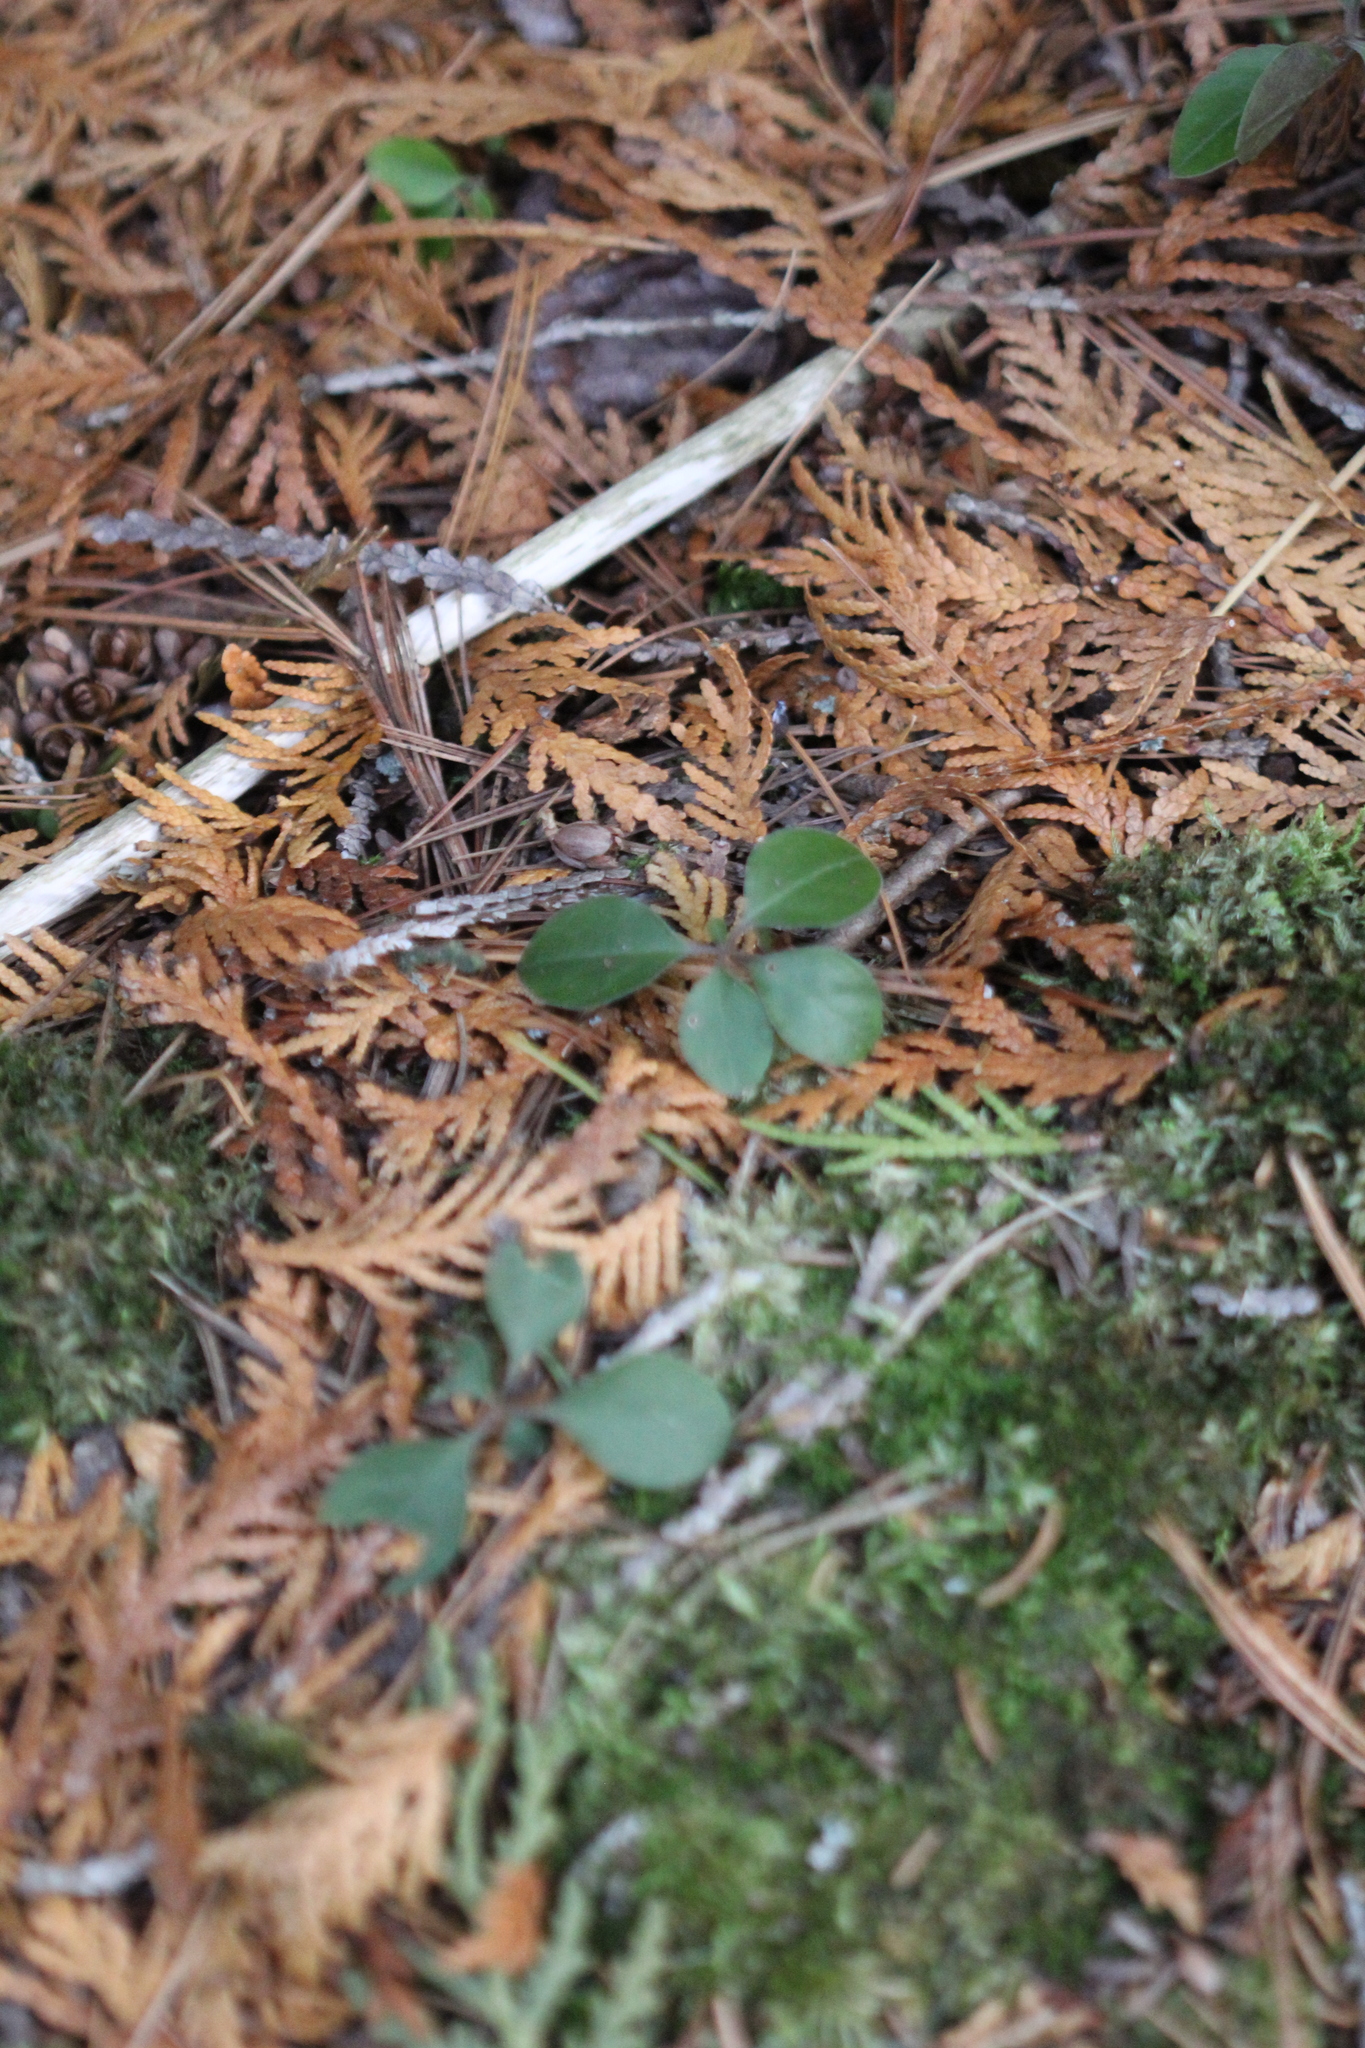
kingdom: Plantae
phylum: Tracheophyta
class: Magnoliopsida
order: Ericales
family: Ericaceae
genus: Gaultheria
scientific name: Gaultheria procumbens
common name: Checkerberry
